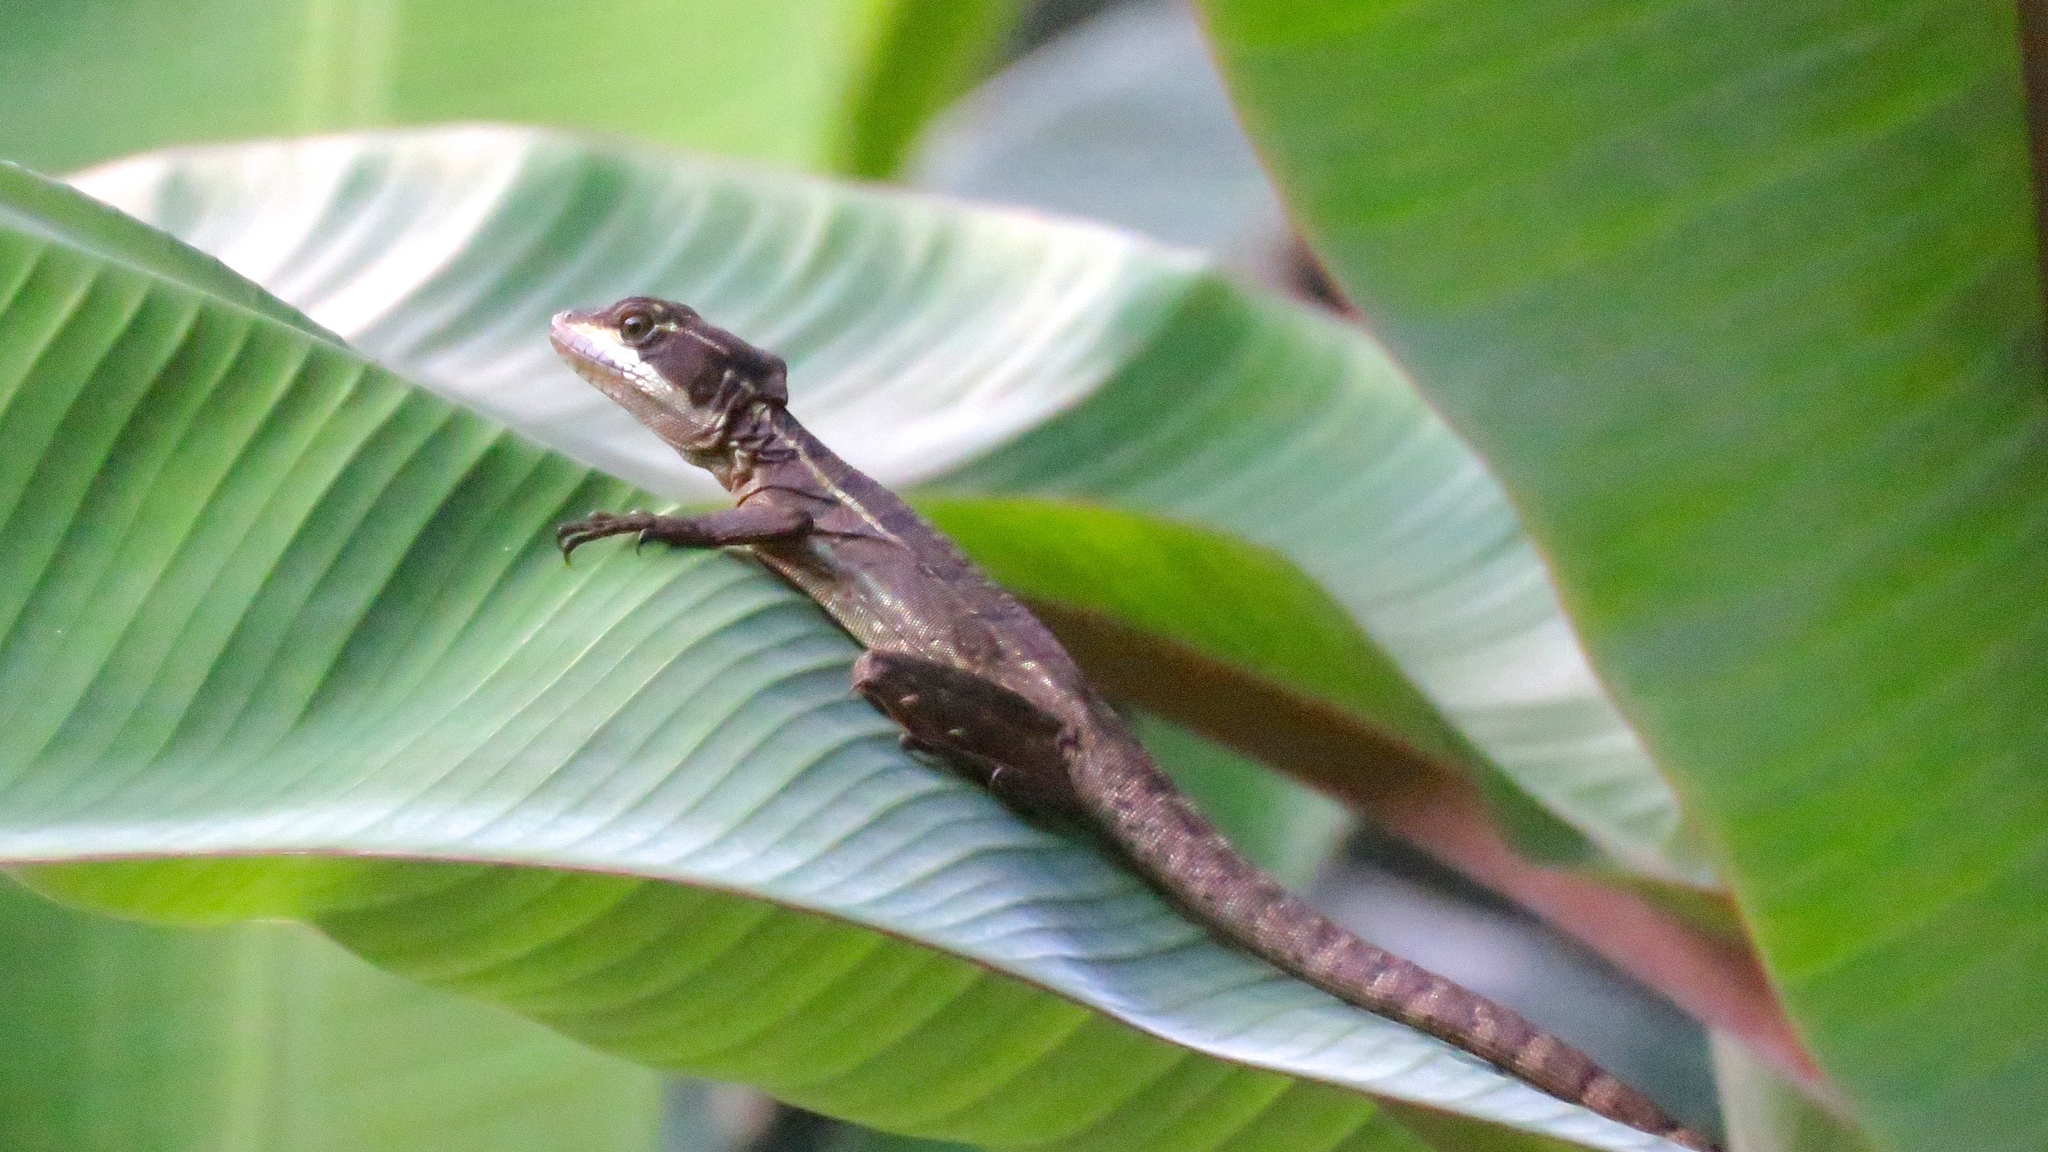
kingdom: Animalia
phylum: Chordata
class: Squamata
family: Corytophanidae
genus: Basiliscus
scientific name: Basiliscus basiliscus
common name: Common basilisk
